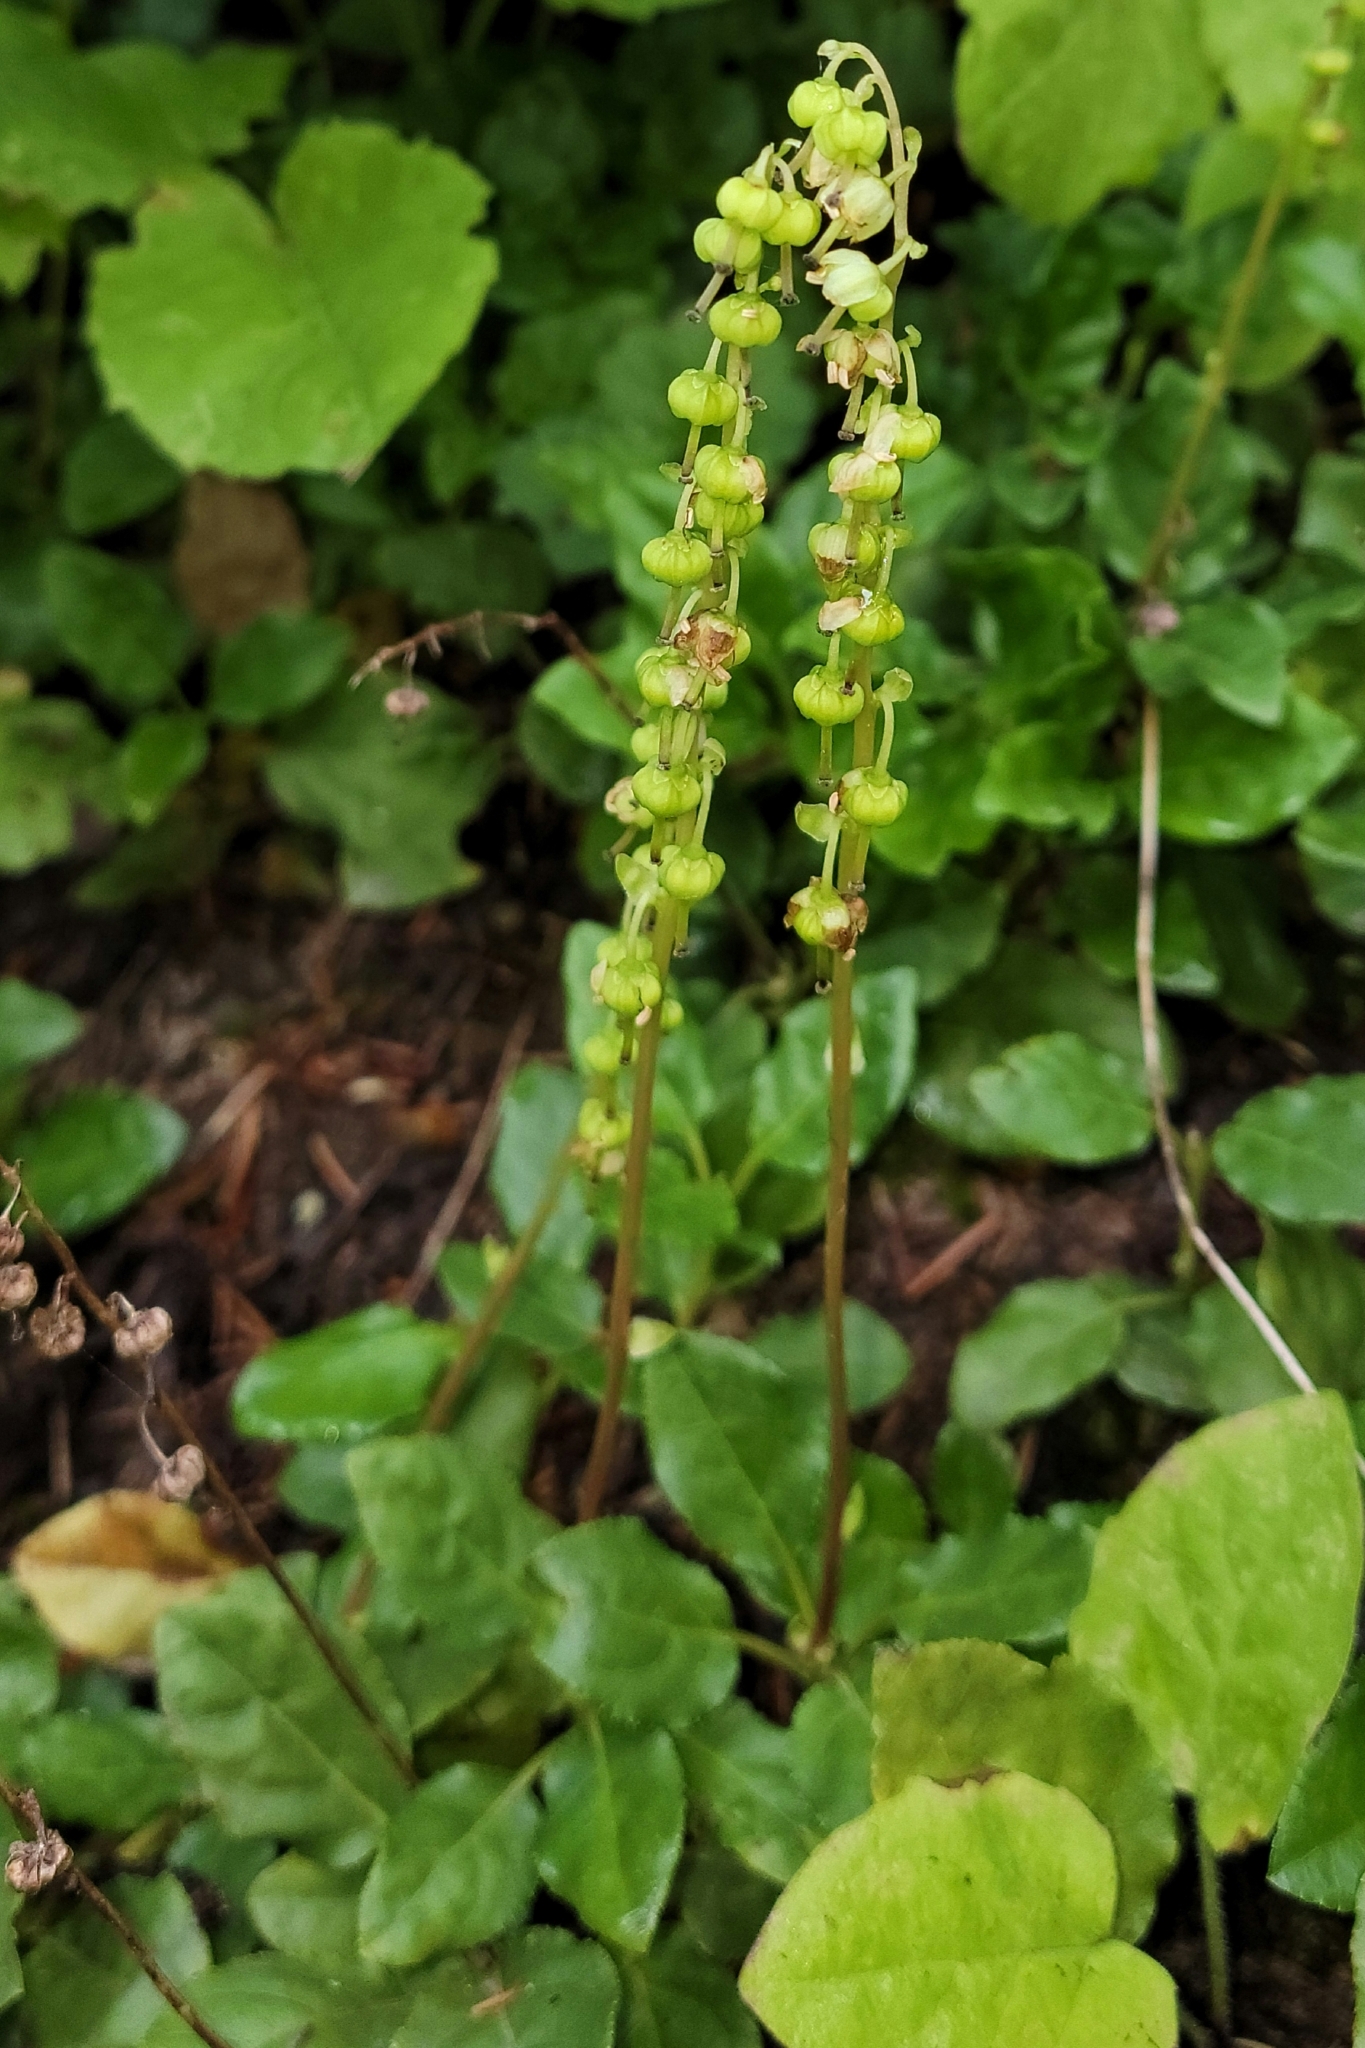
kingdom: Plantae
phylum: Tracheophyta
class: Magnoliopsida
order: Ericales
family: Ericaceae
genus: Orthilia
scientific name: Orthilia secunda
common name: One-sided orthilia
